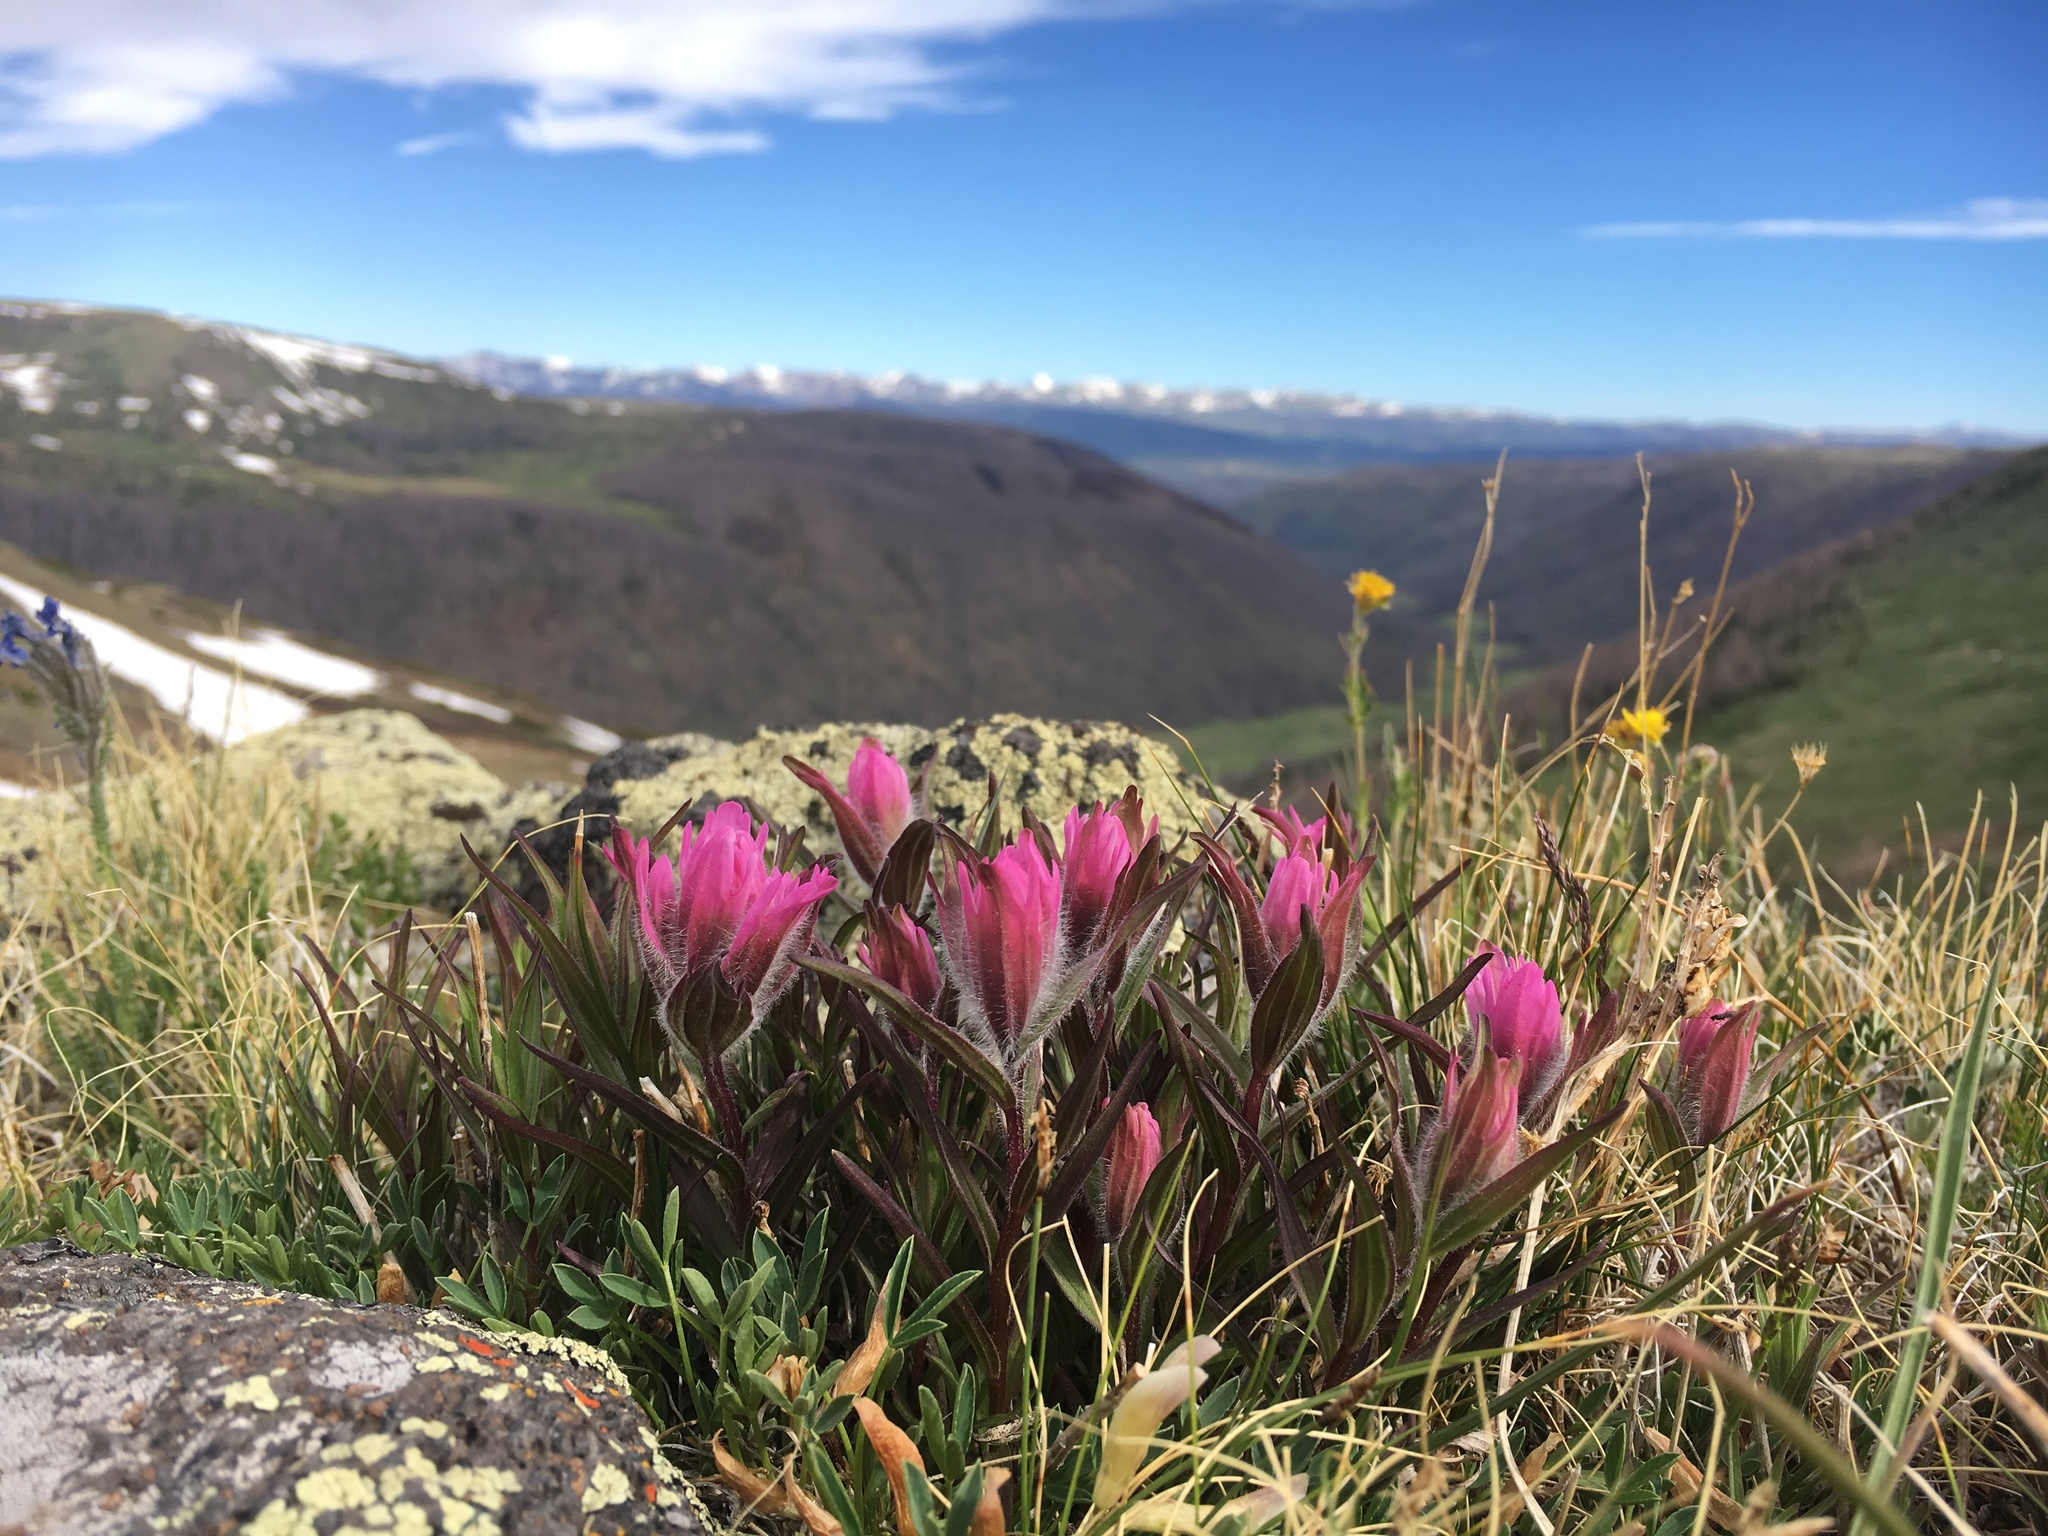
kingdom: Plantae
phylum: Tracheophyta
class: Magnoliopsida
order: Lamiales
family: Orobanchaceae
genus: Castilleja
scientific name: Castilleja rhexifolia
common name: Rocky mountain paintbrush
